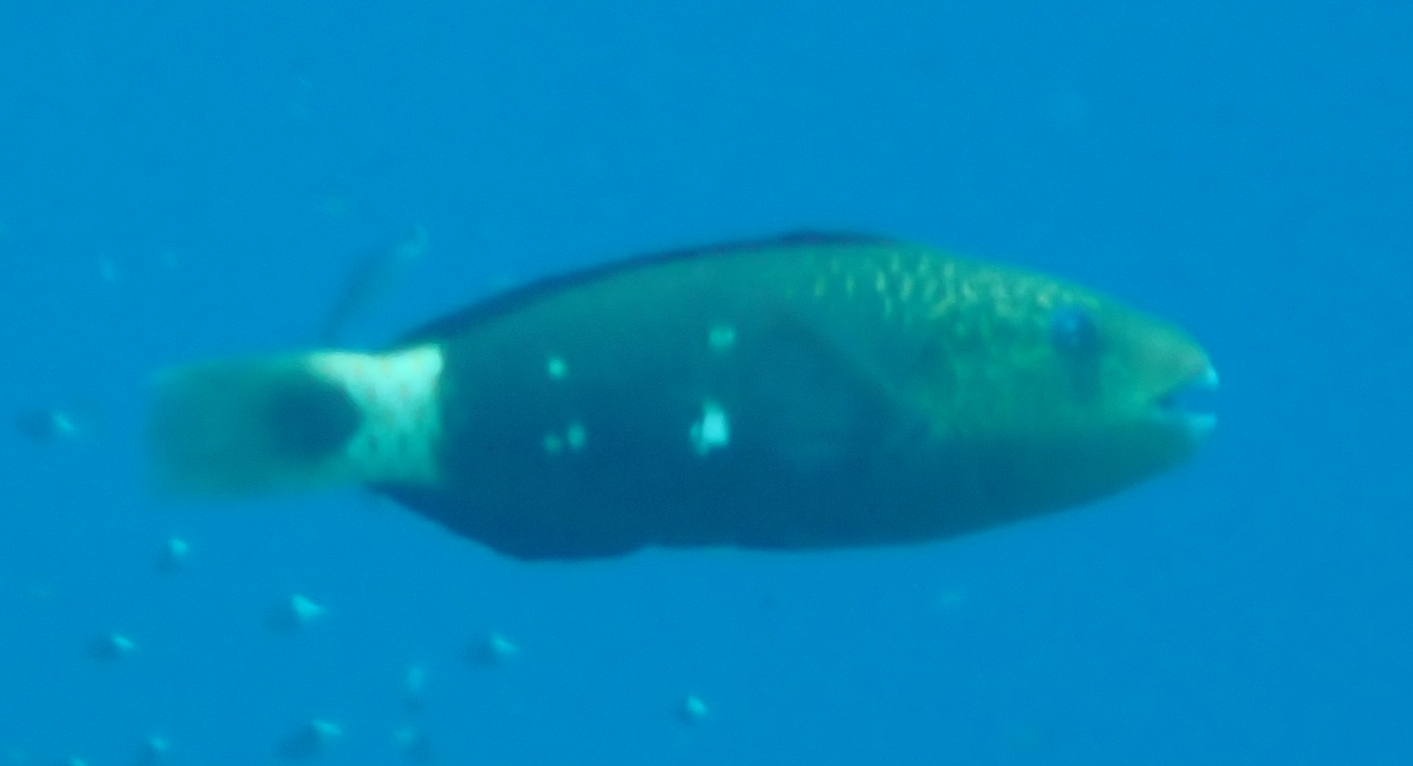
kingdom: Animalia
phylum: Chordata
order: Perciformes
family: Scaridae
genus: Chlorurus
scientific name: Chlorurus sordidus
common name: Bullethead parrotfish
